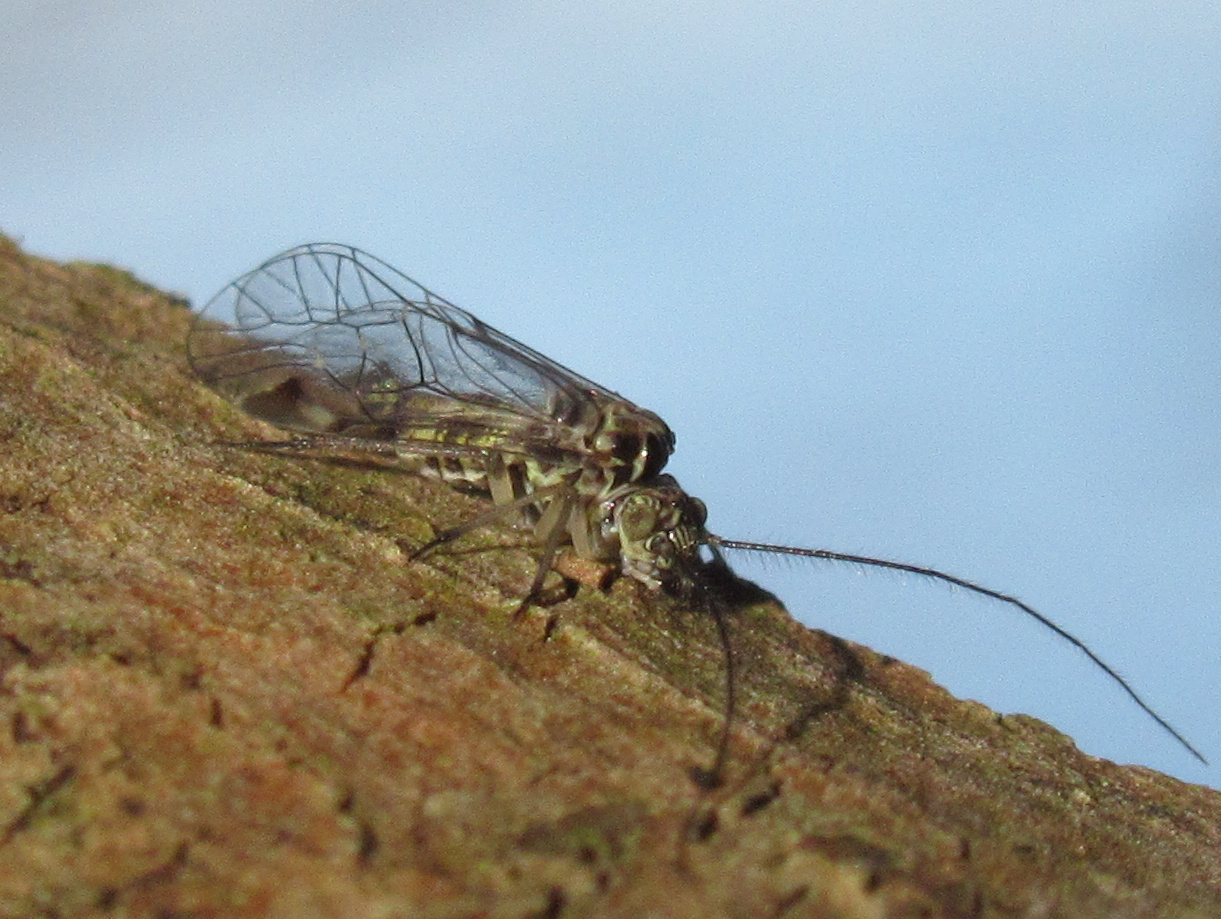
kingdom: Animalia
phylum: Arthropoda
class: Insecta
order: Psocodea
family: Psocidae
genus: Clematostigma
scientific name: Clematostigma maculiceps
